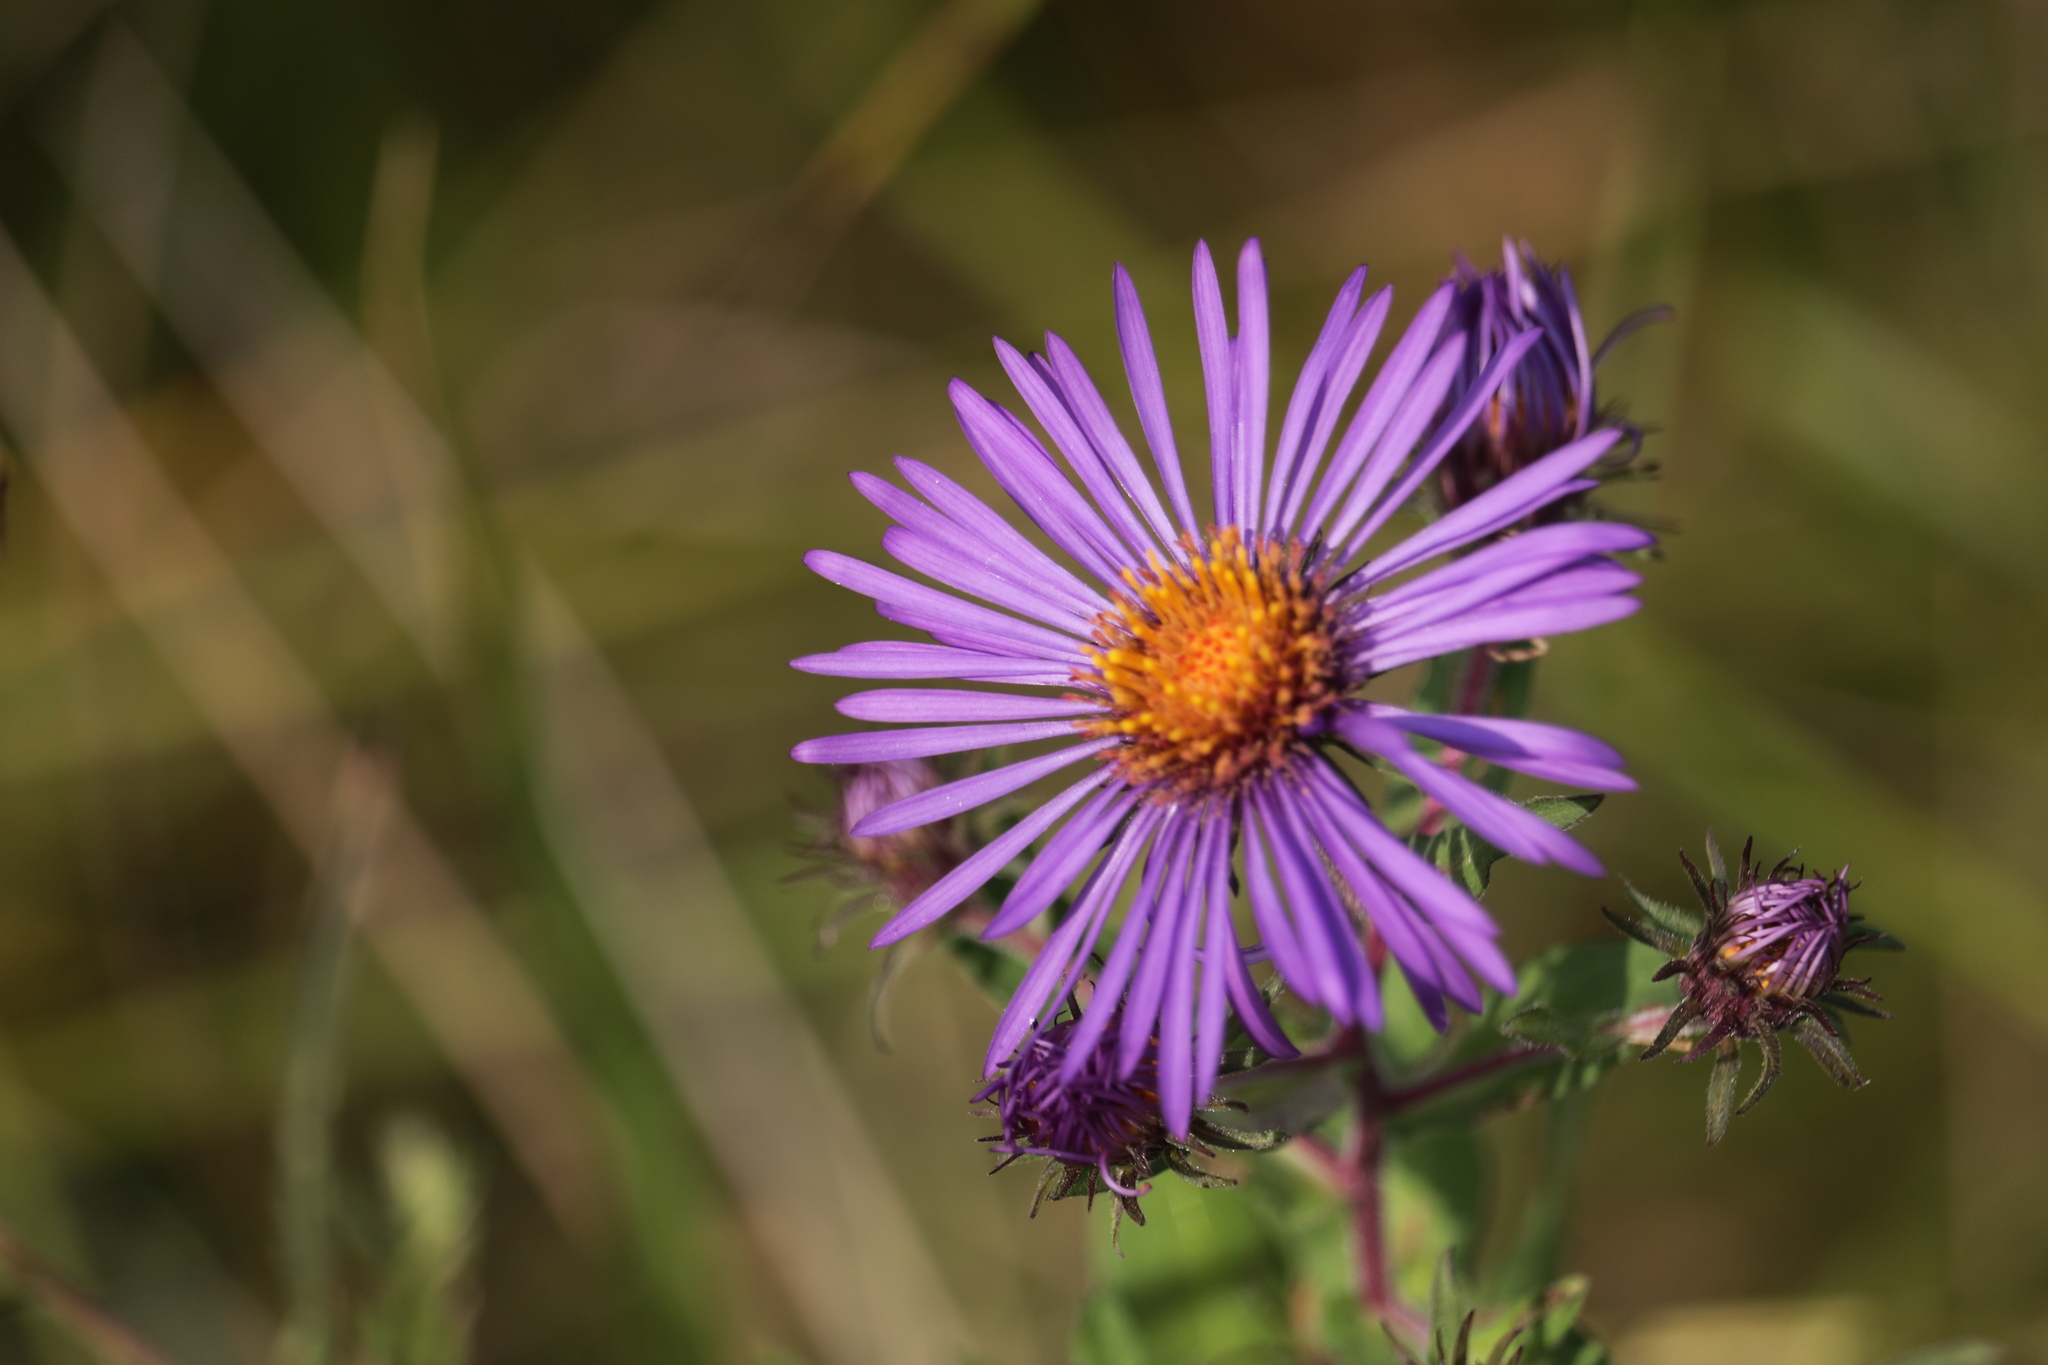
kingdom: Plantae
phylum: Tracheophyta
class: Magnoliopsida
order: Asterales
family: Asteraceae
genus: Symphyotrichum
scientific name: Symphyotrichum novae-angliae
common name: Michaelmas daisy
